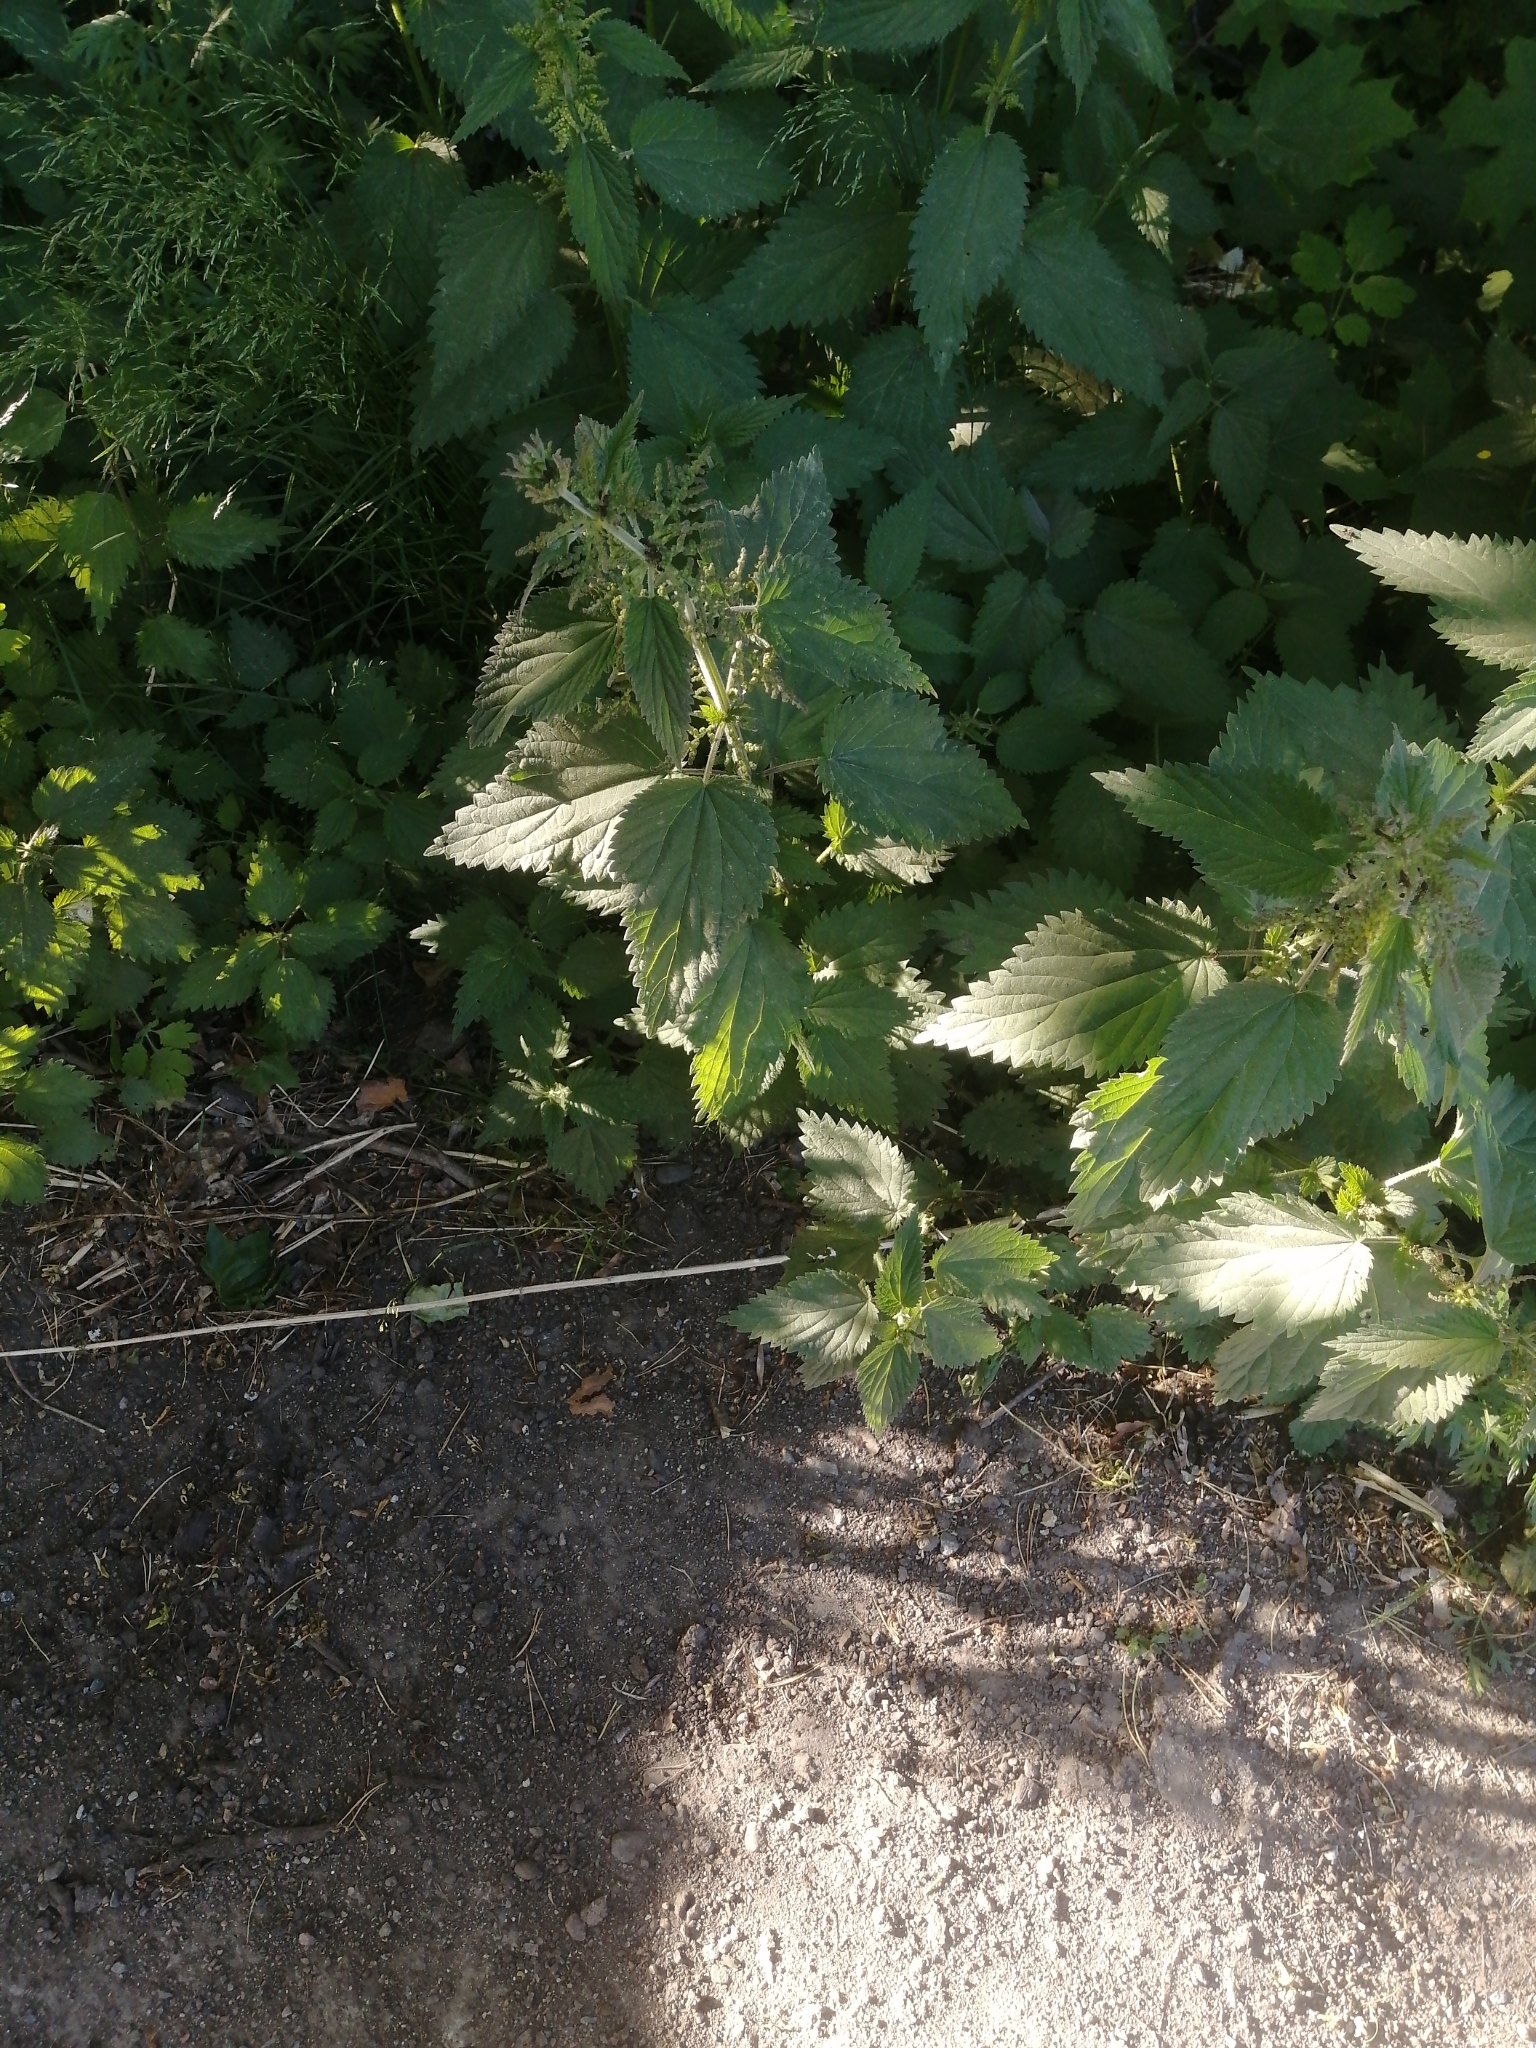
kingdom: Plantae
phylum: Tracheophyta
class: Magnoliopsida
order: Rosales
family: Urticaceae
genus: Urtica
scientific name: Urtica dioica
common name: Common nettle
